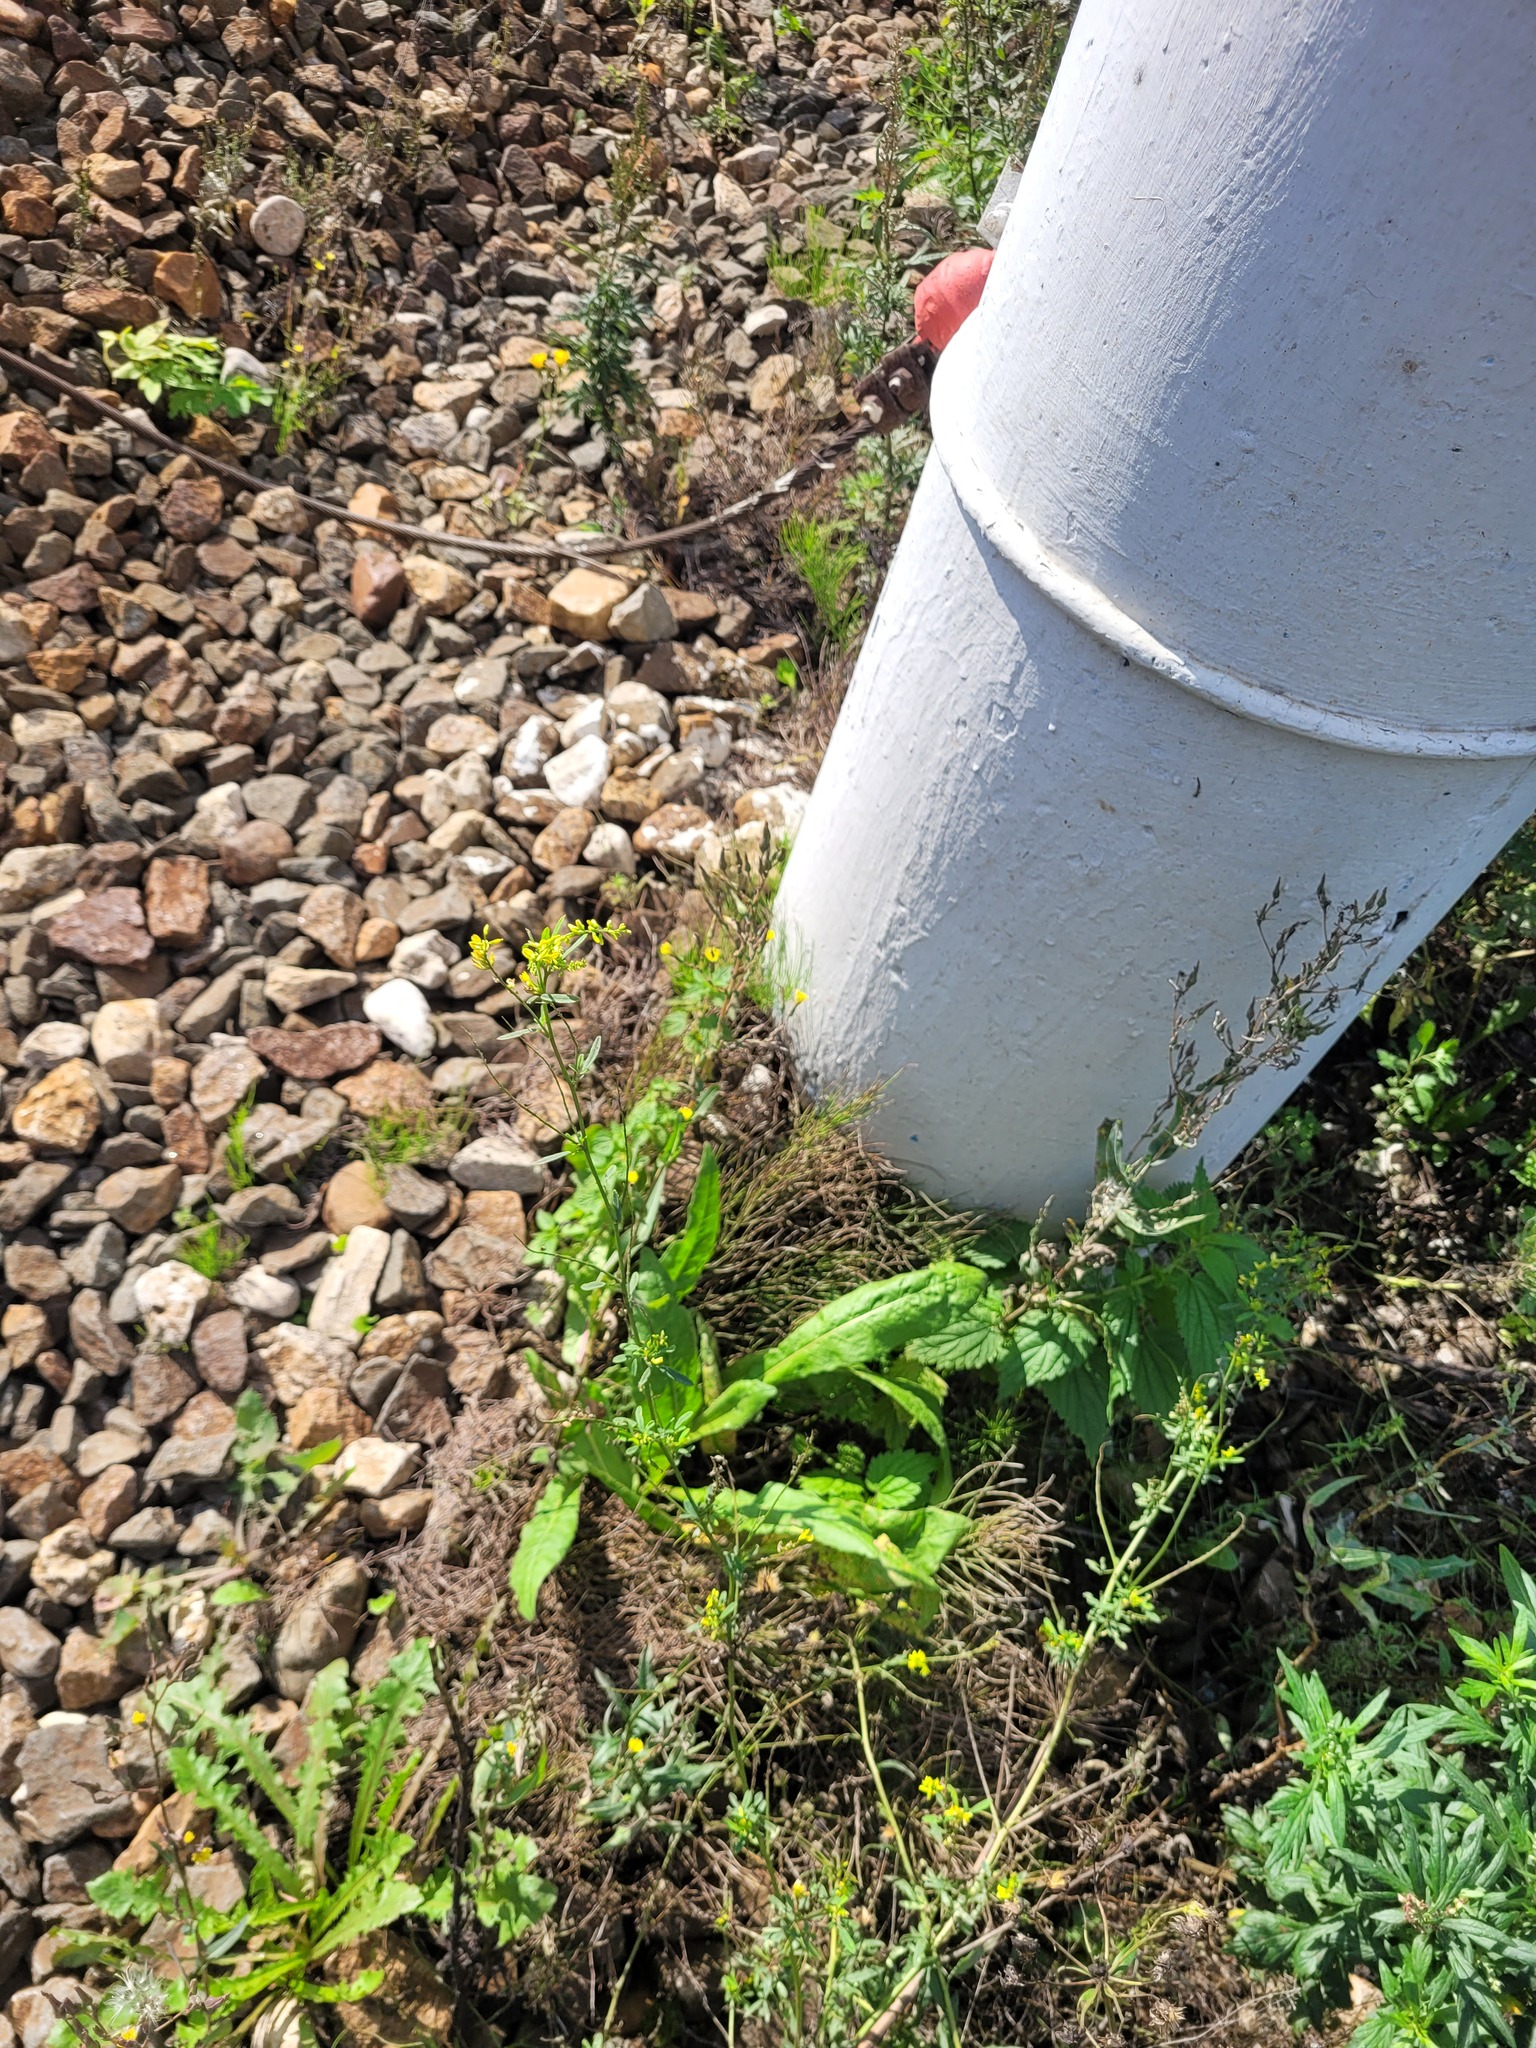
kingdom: Plantae
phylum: Tracheophyta
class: Magnoliopsida
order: Fabales
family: Fabaceae
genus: Melilotus
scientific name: Melilotus officinalis
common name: Sweetclover
